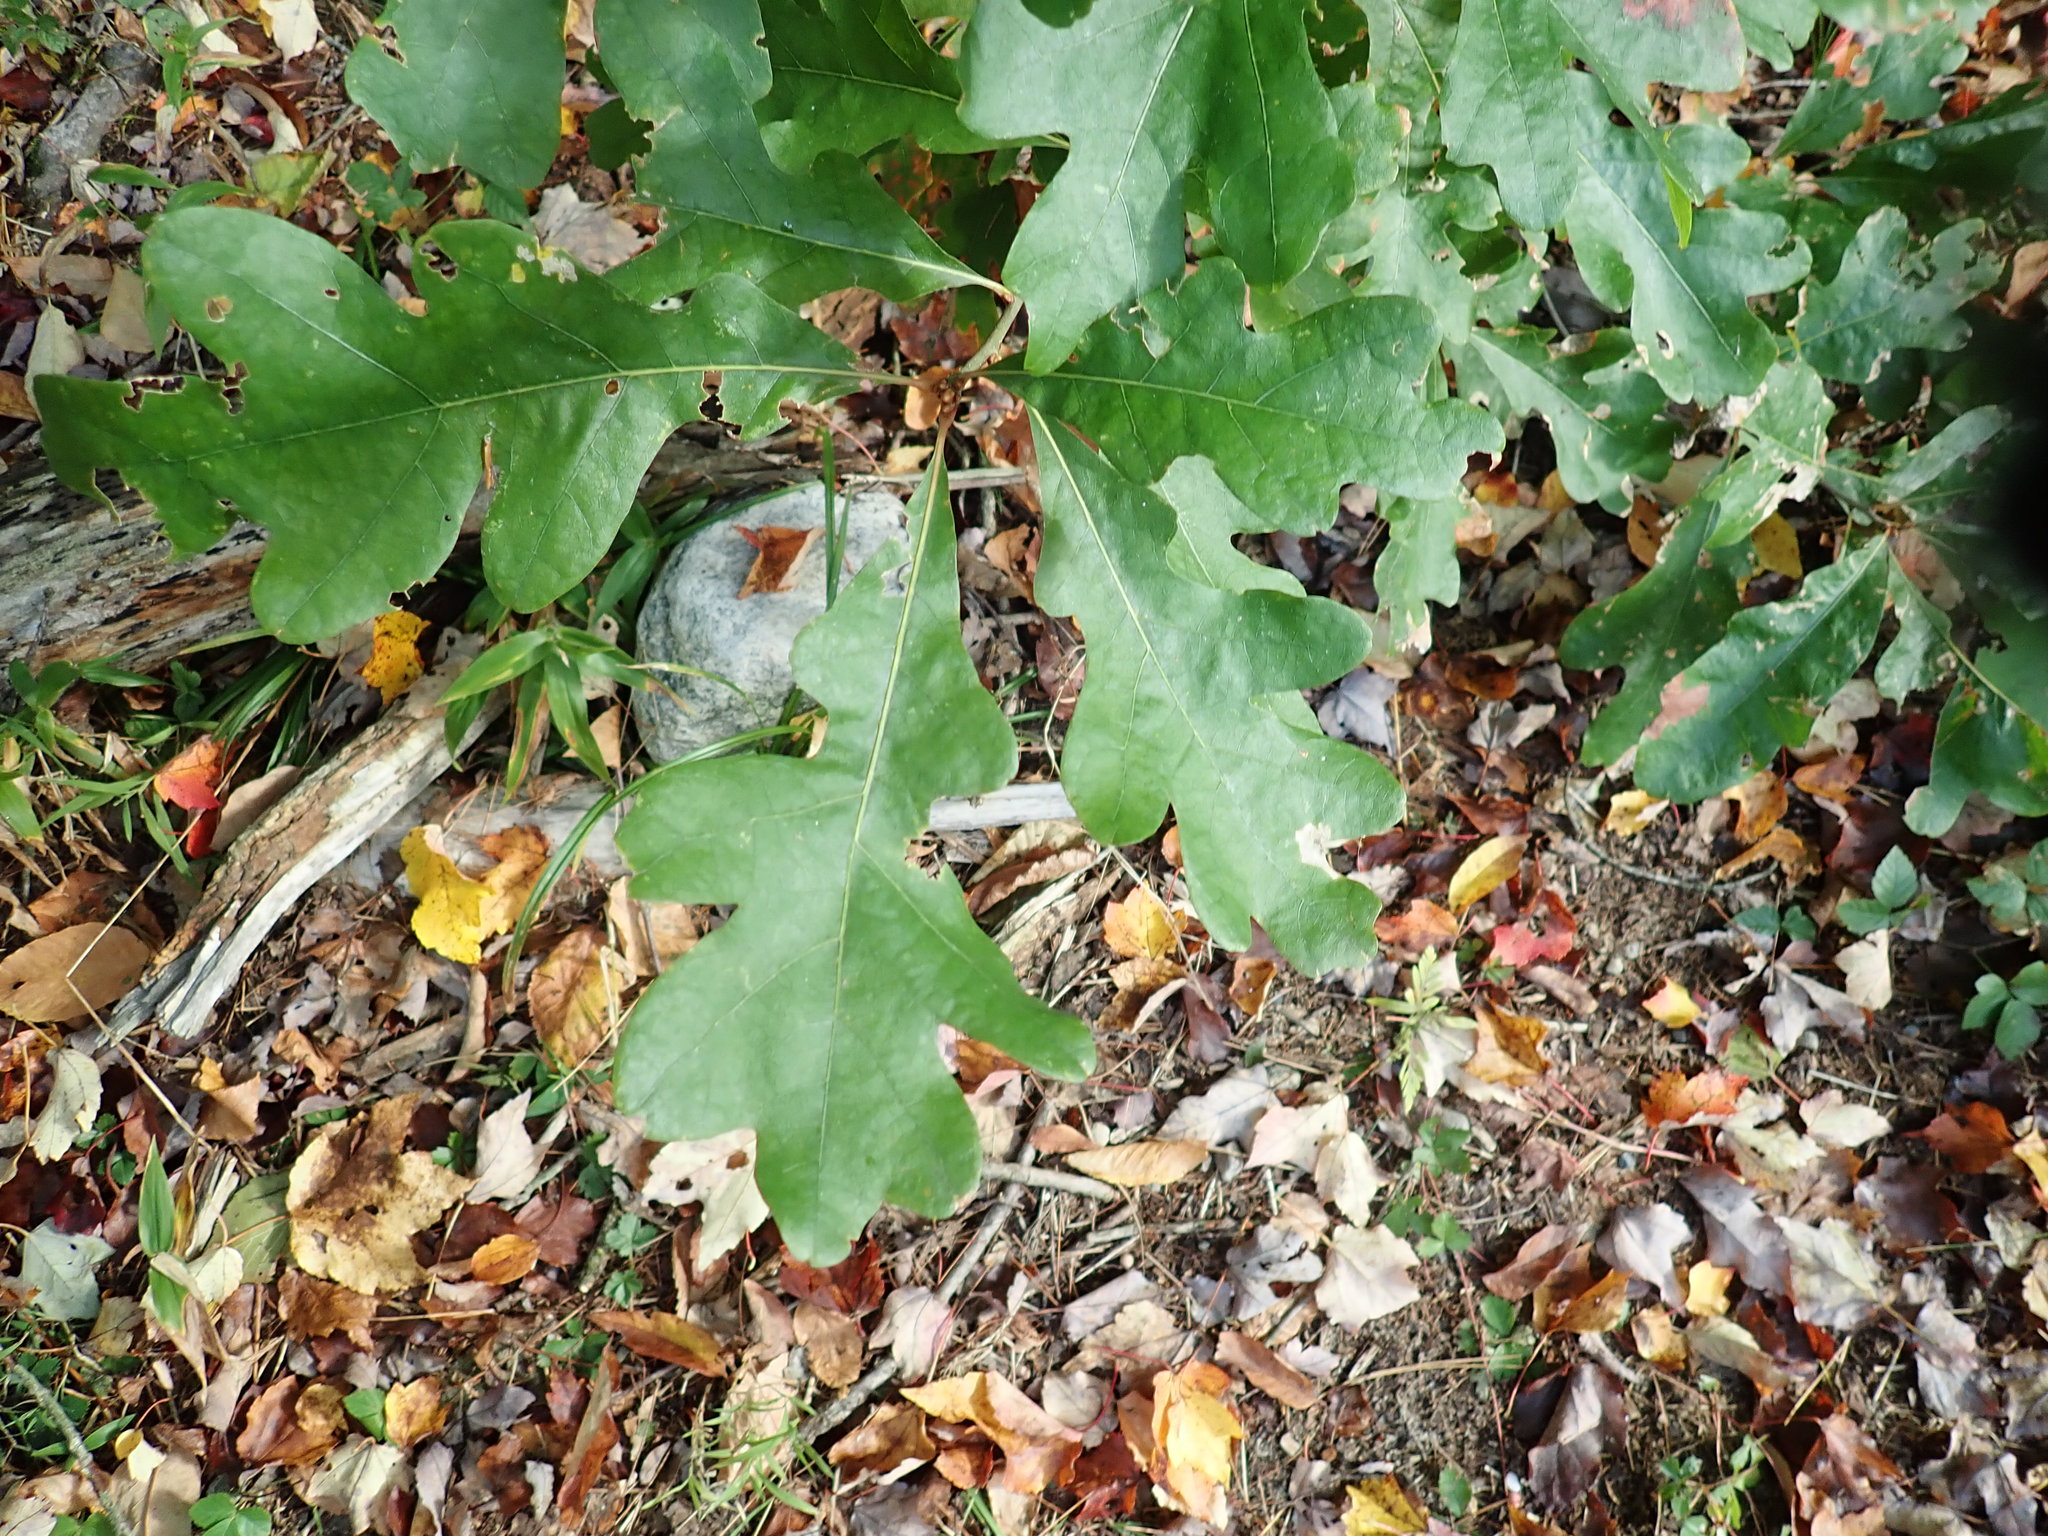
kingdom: Plantae
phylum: Tracheophyta
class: Magnoliopsida
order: Fagales
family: Fagaceae
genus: Quercus
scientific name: Quercus alba
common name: White oak
